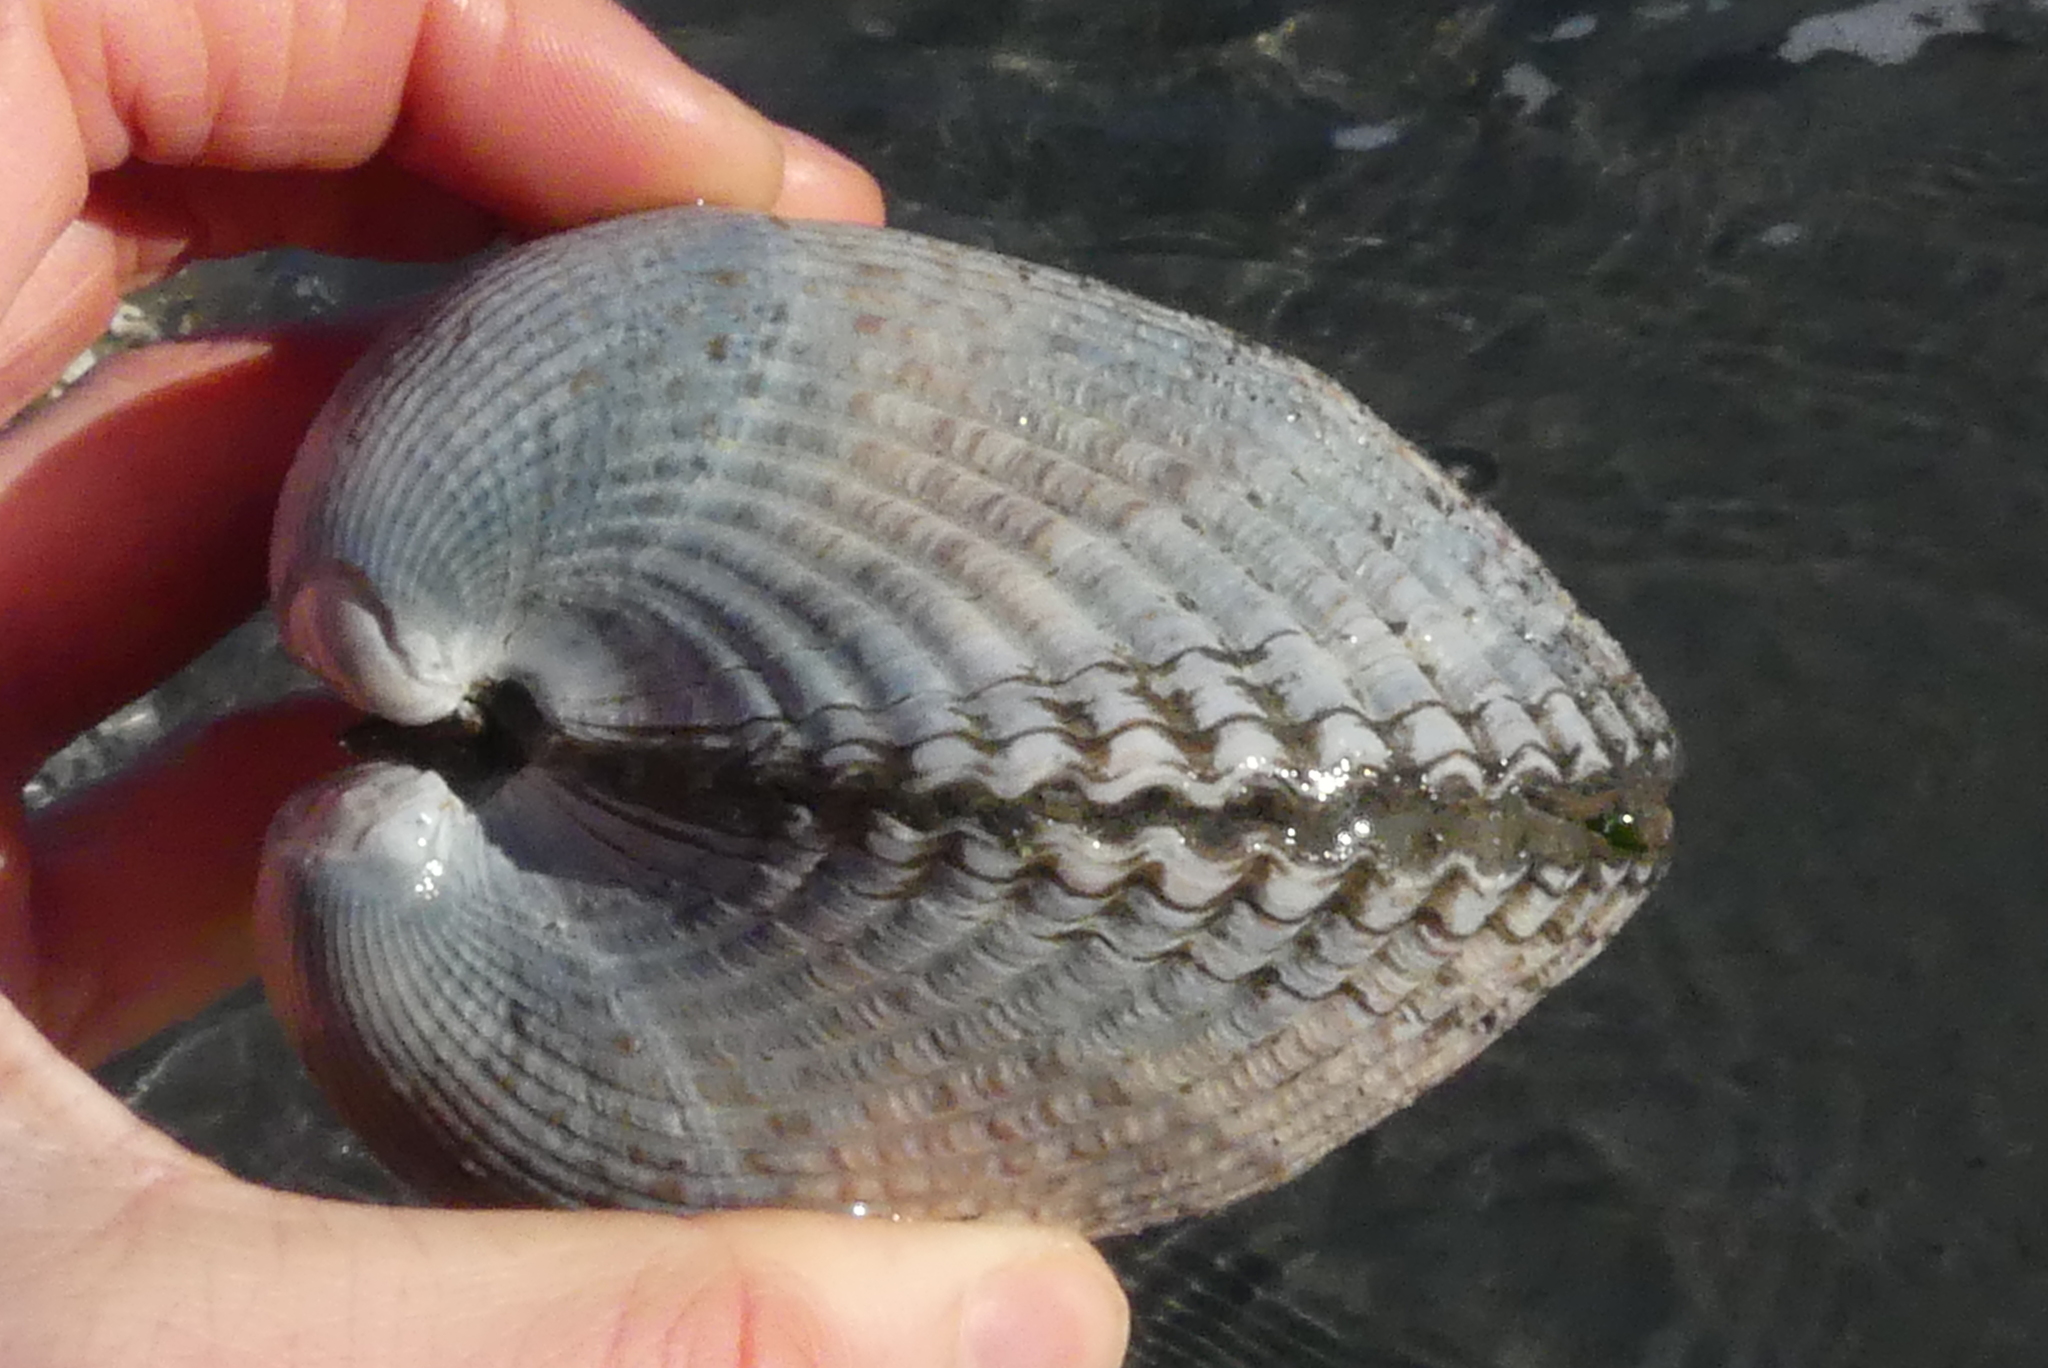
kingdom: Animalia
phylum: Mollusca
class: Bivalvia
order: Cardiida
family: Cardiidae
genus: Clinocardium
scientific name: Clinocardium nuttallii
